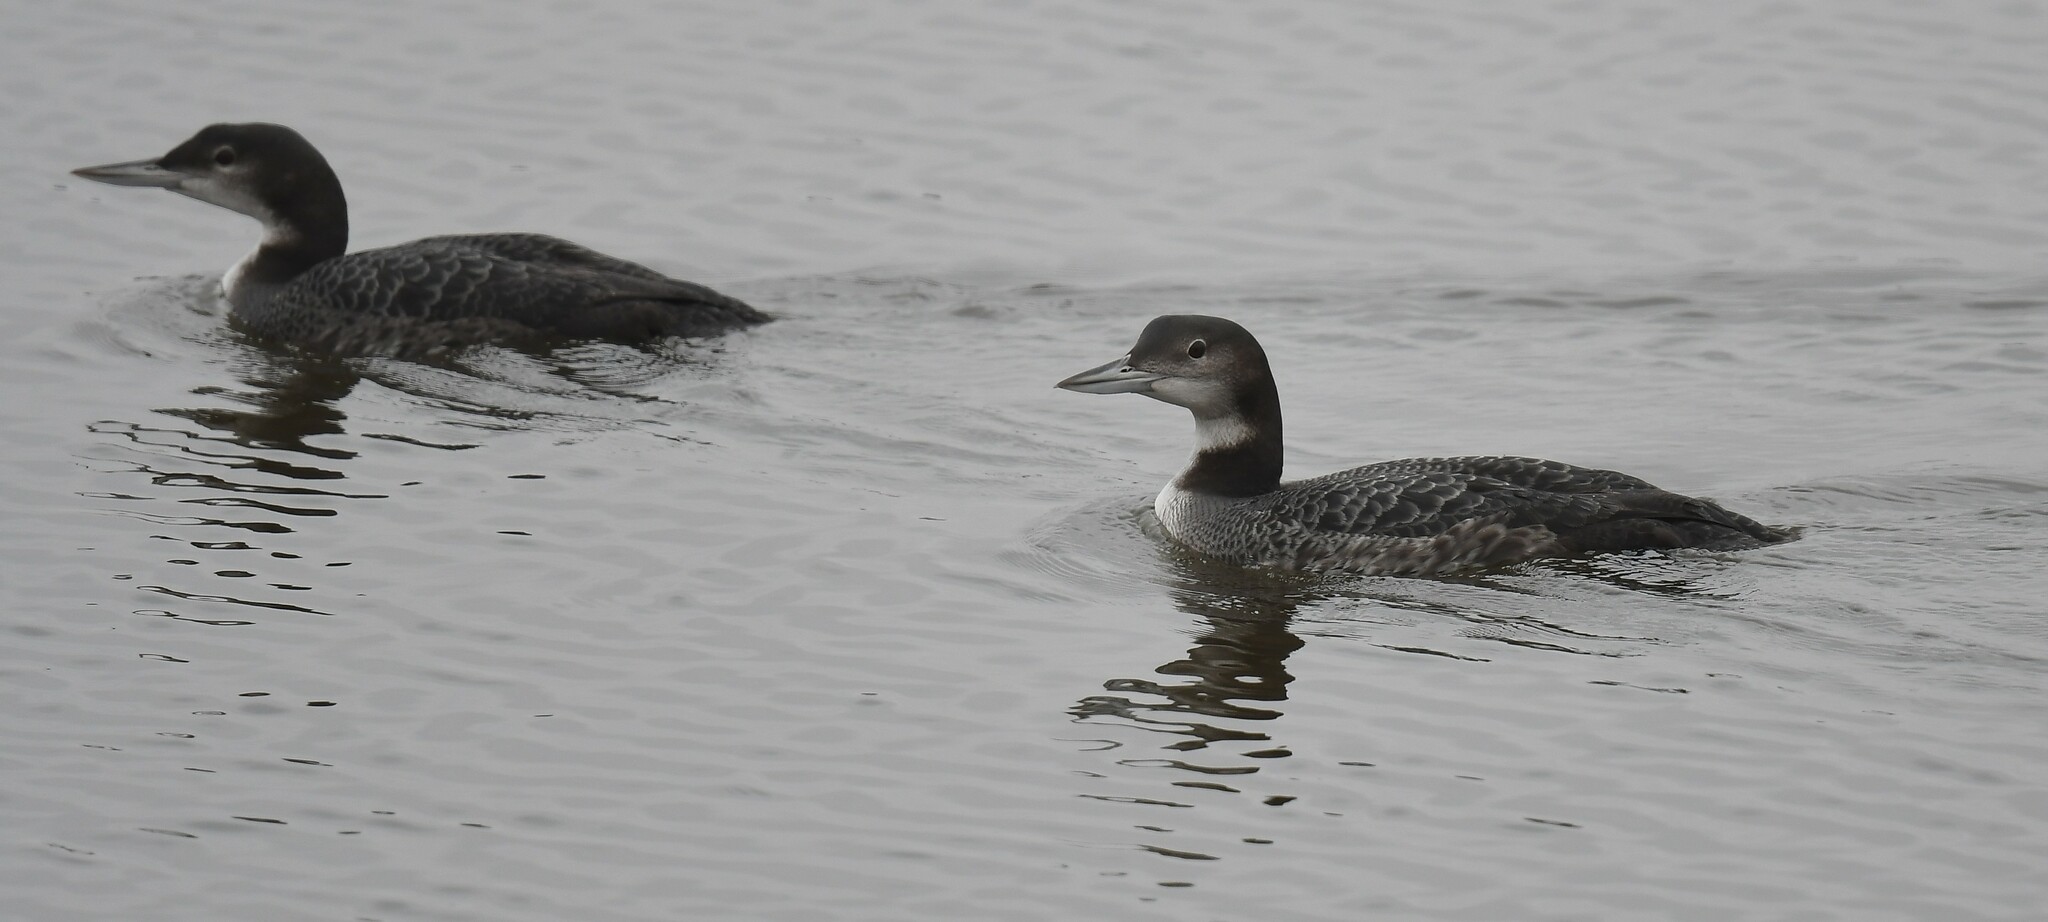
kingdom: Animalia
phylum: Chordata
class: Aves
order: Gaviiformes
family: Gaviidae
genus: Gavia
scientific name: Gavia immer
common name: Common loon
